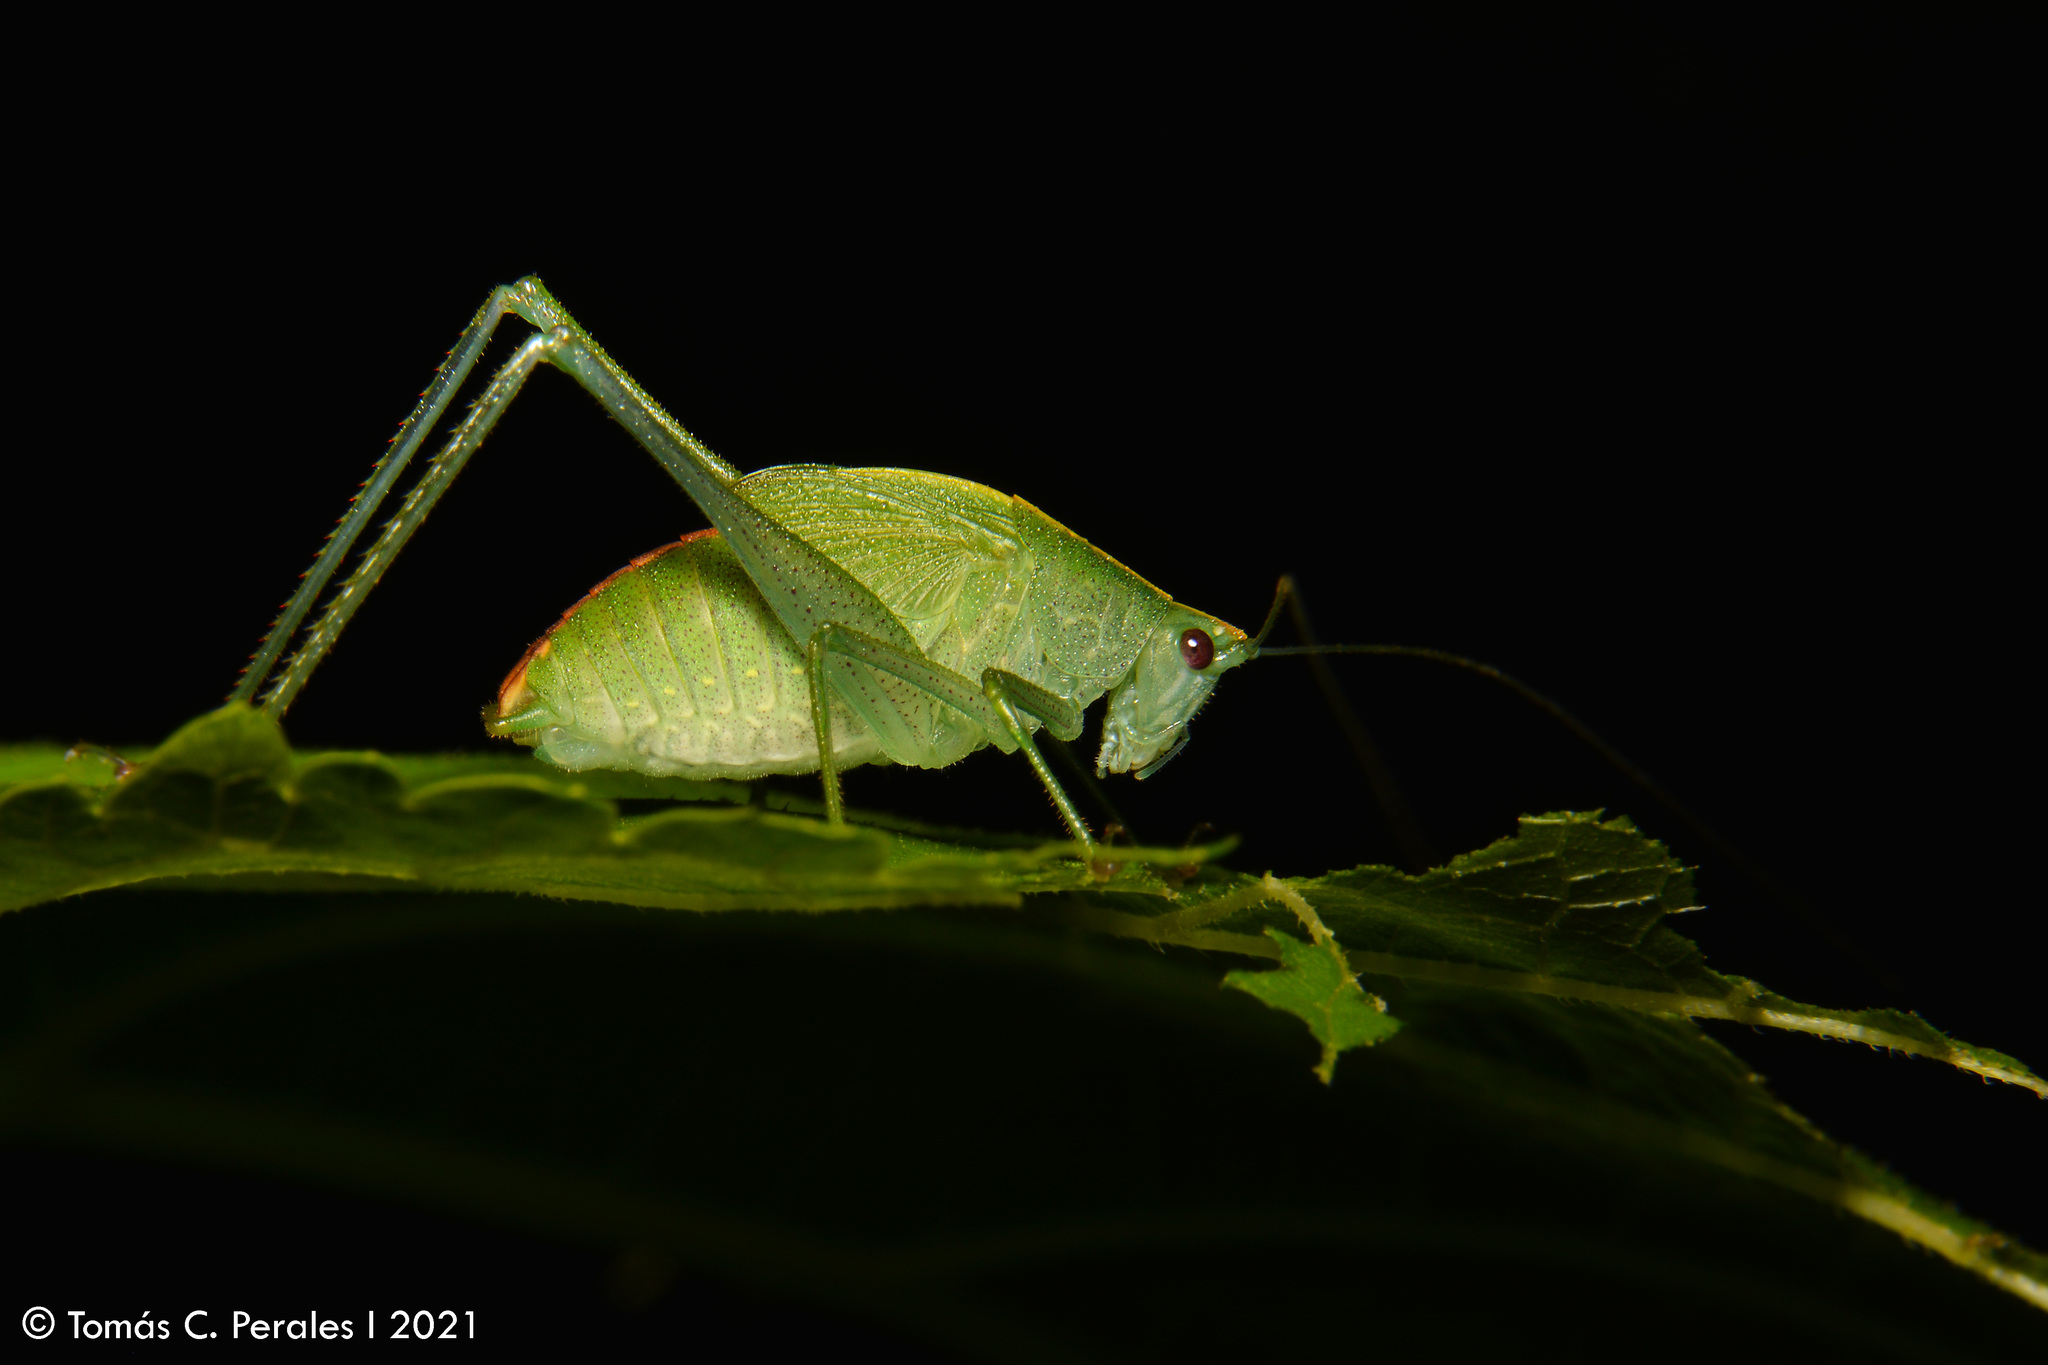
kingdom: Animalia
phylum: Arthropoda
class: Insecta
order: Orthoptera
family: Tettigoniidae
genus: Grammadera
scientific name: Grammadera clara
